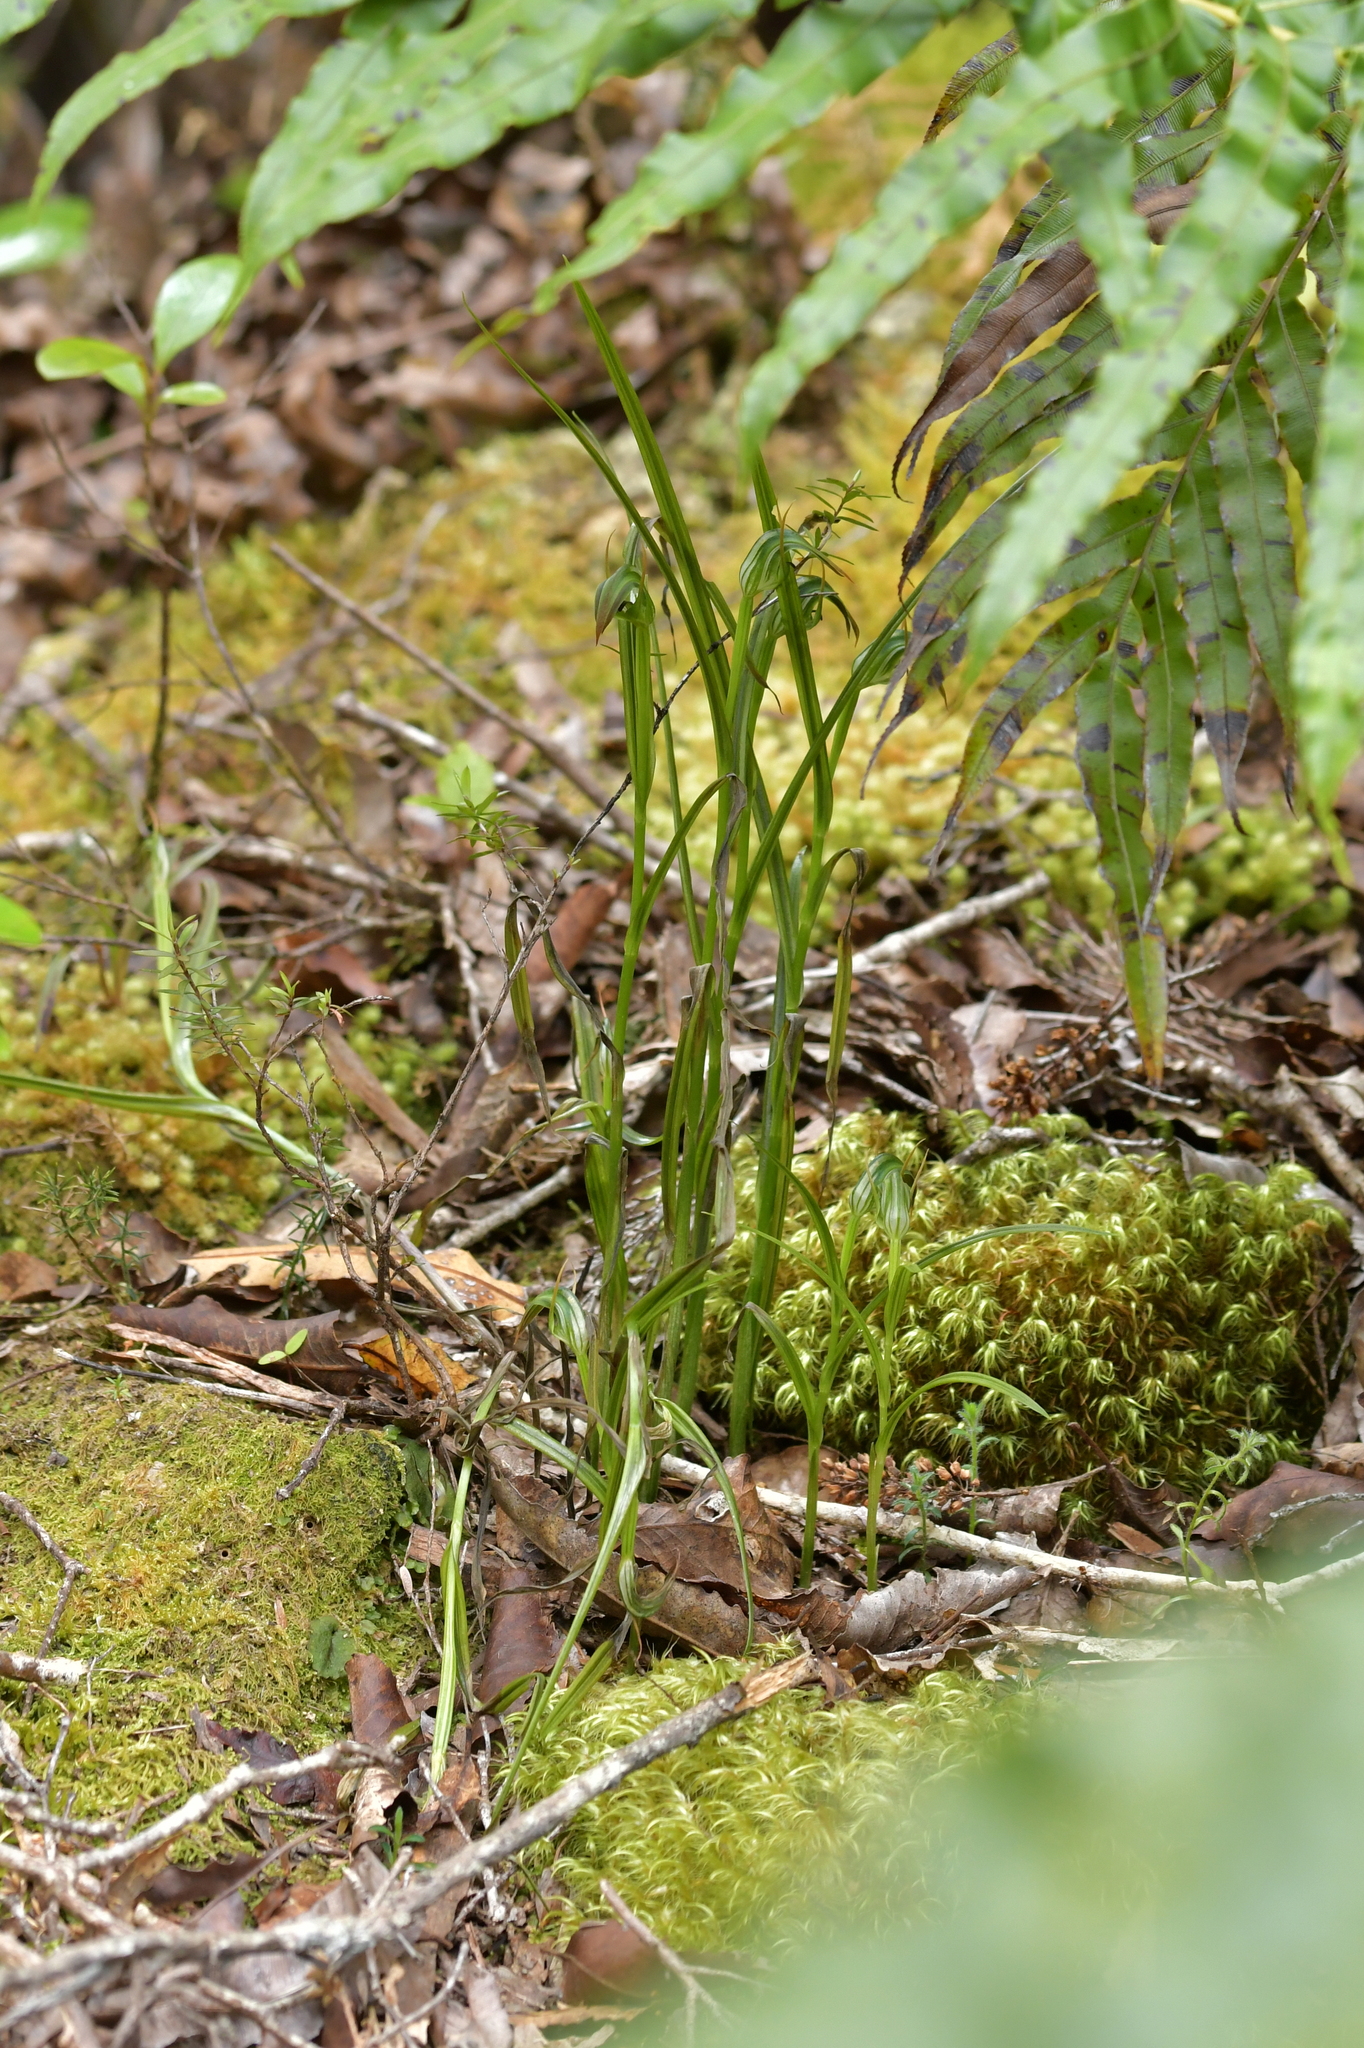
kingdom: Plantae
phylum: Tracheophyta
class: Liliopsida
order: Asparagales
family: Orchidaceae
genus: Pterostylis
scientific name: Pterostylis graminea
